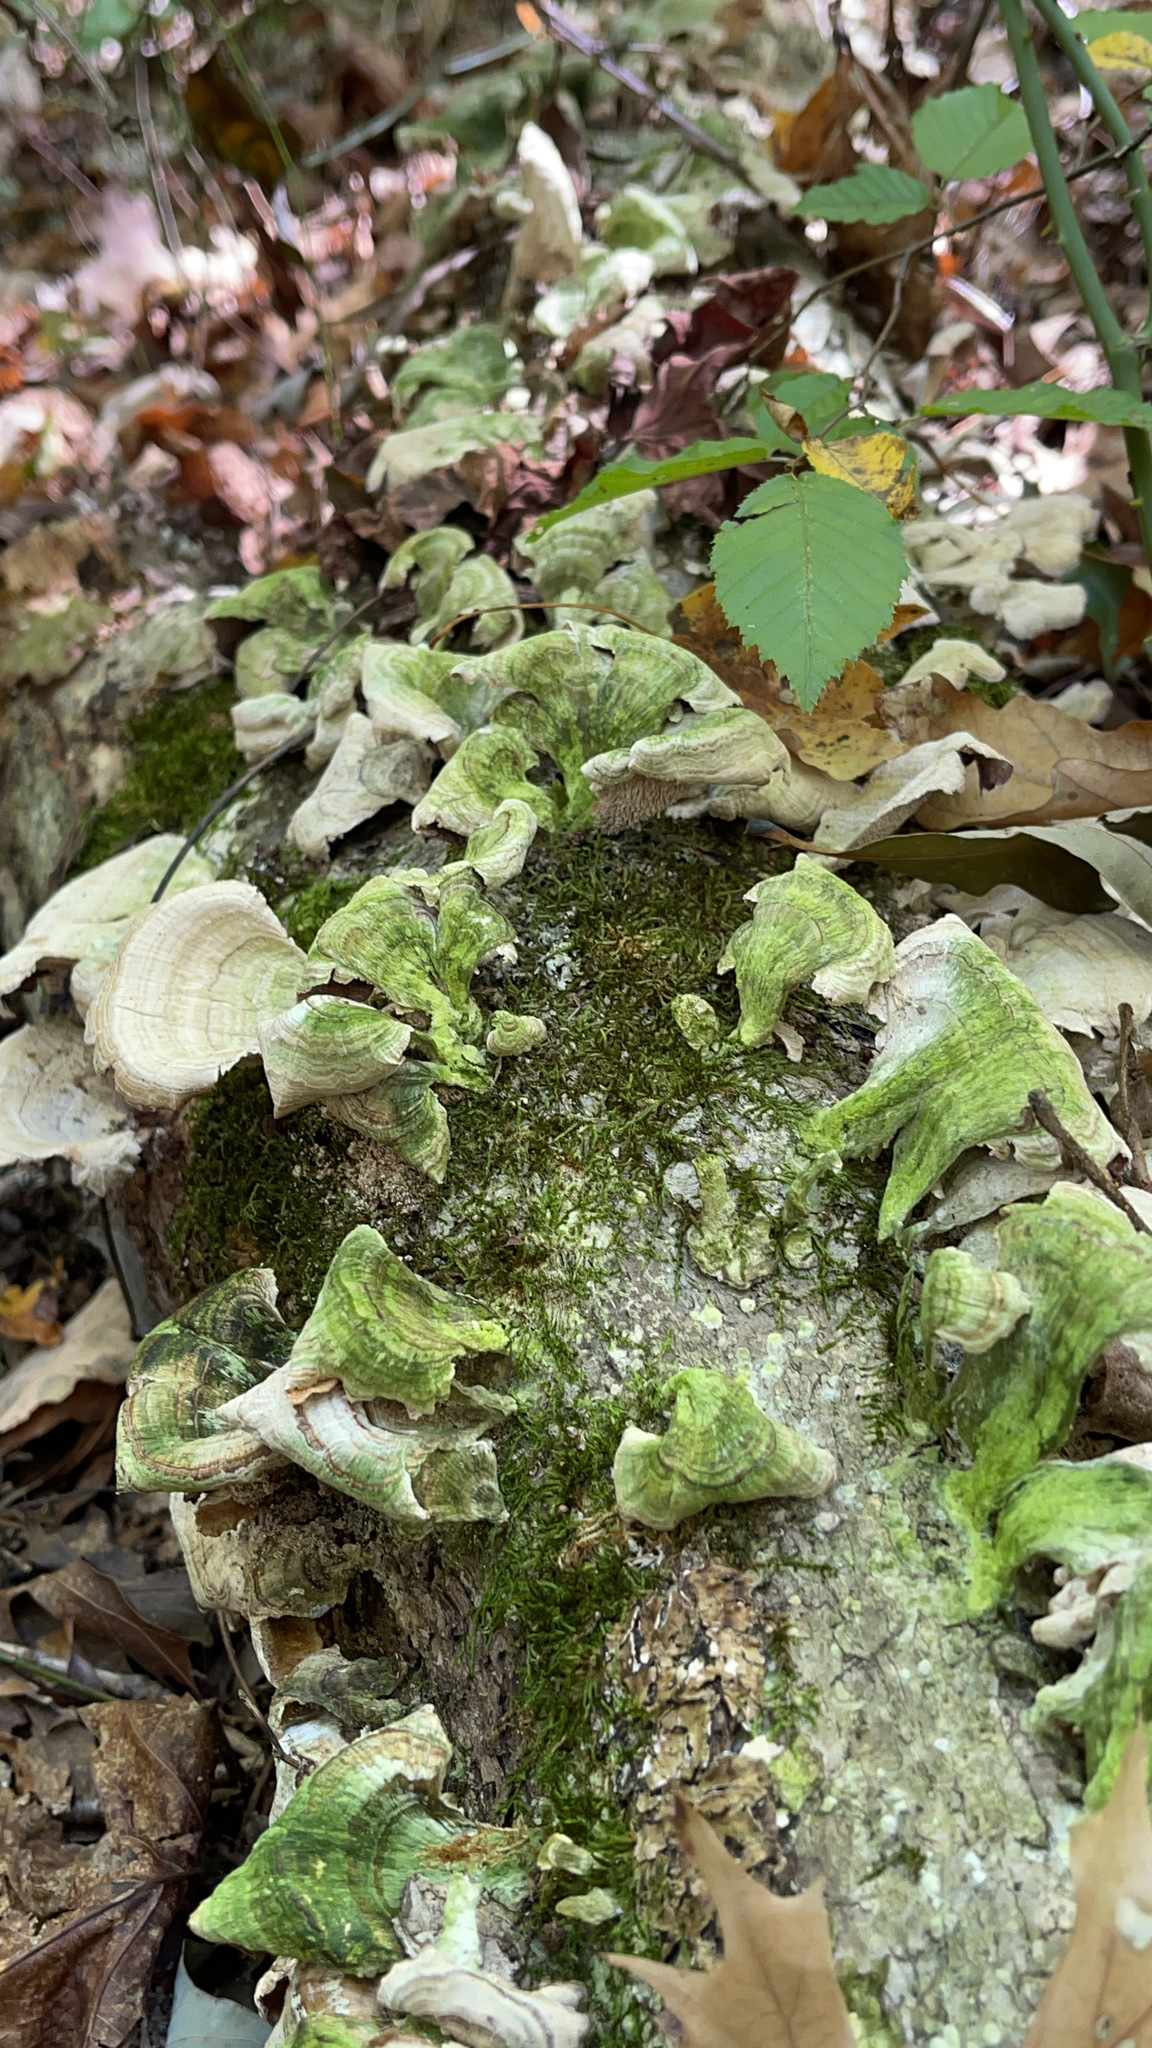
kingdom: Fungi
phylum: Basidiomycota
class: Agaricomycetes
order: Hymenochaetales
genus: Trichaptum
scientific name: Trichaptum biforme
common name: Violet-toothed polypore
